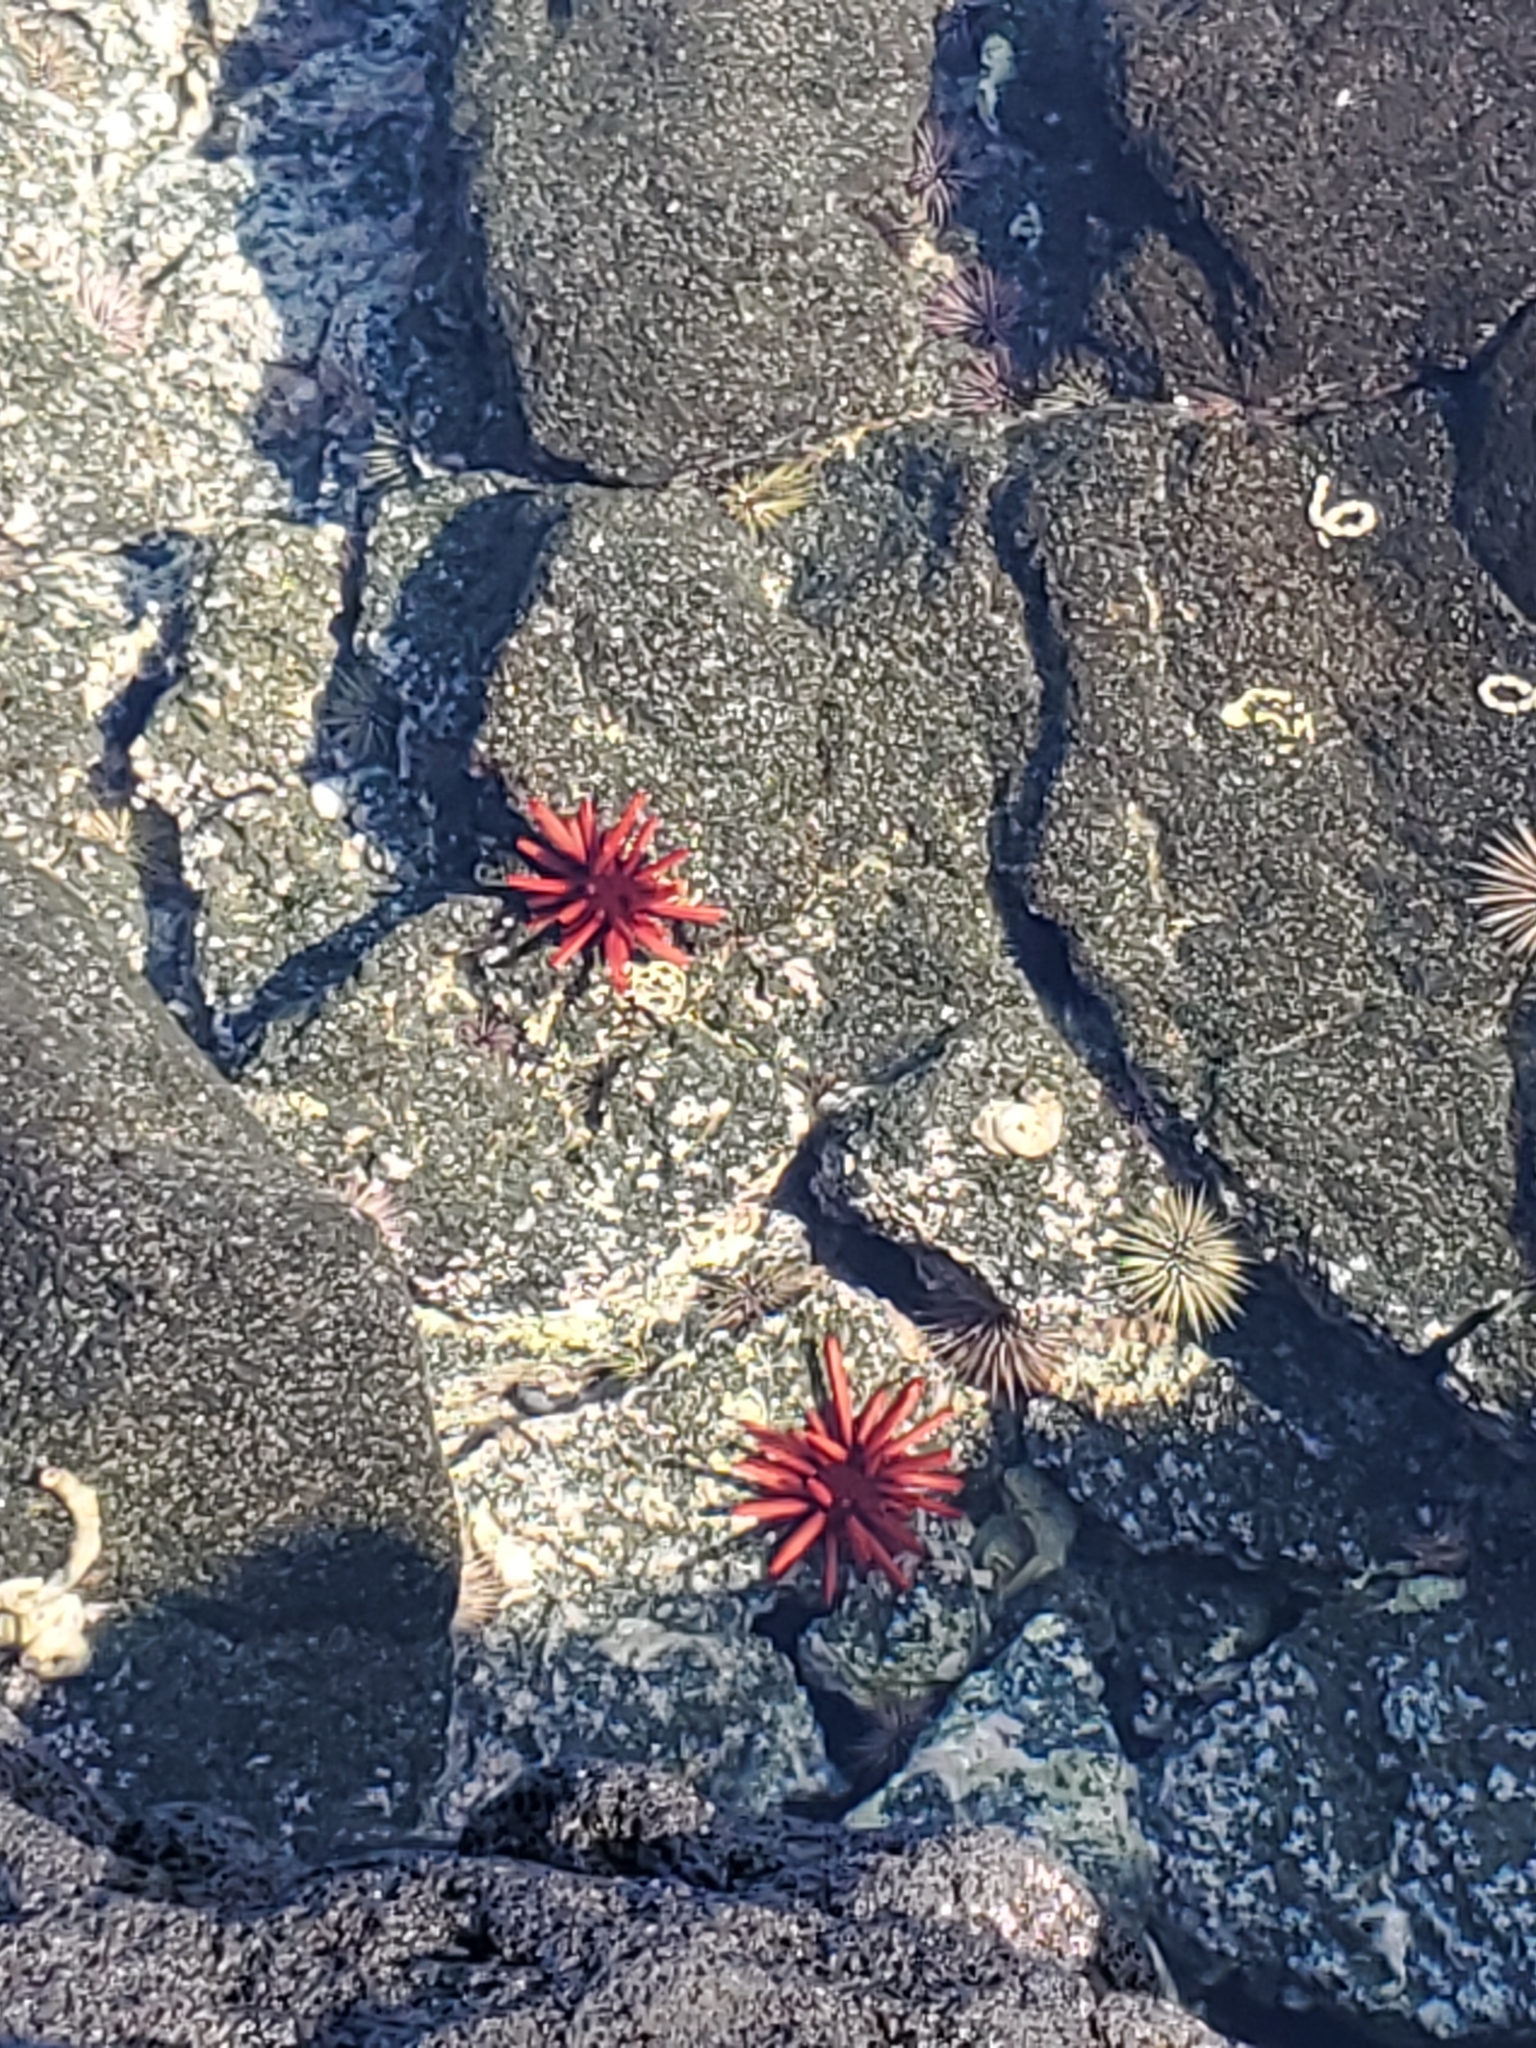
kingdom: Animalia
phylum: Echinodermata
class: Echinoidea
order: Camarodonta
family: Echinometridae
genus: Heterocentrotus
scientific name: Heterocentrotus mamillatus
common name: Slate pencil urchin
